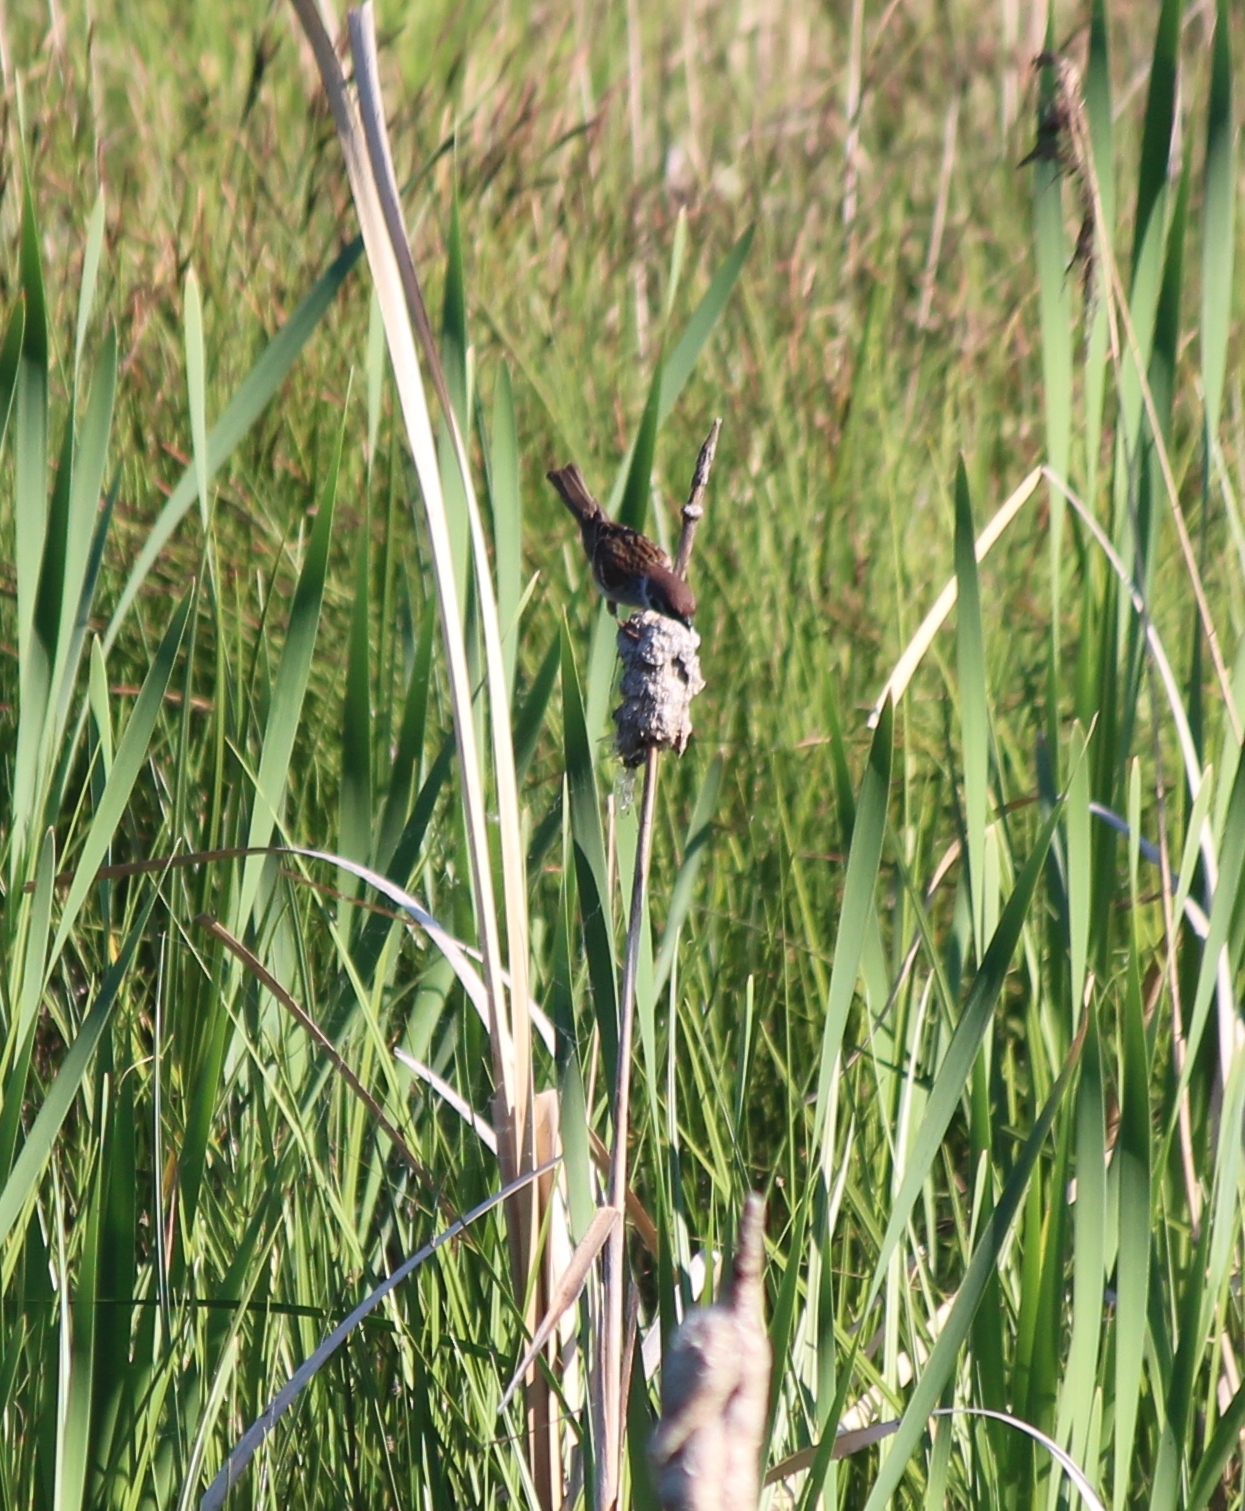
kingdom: Animalia
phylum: Chordata
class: Aves
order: Passeriformes
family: Passeridae
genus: Passer
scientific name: Passer montanus
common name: Eurasian tree sparrow
